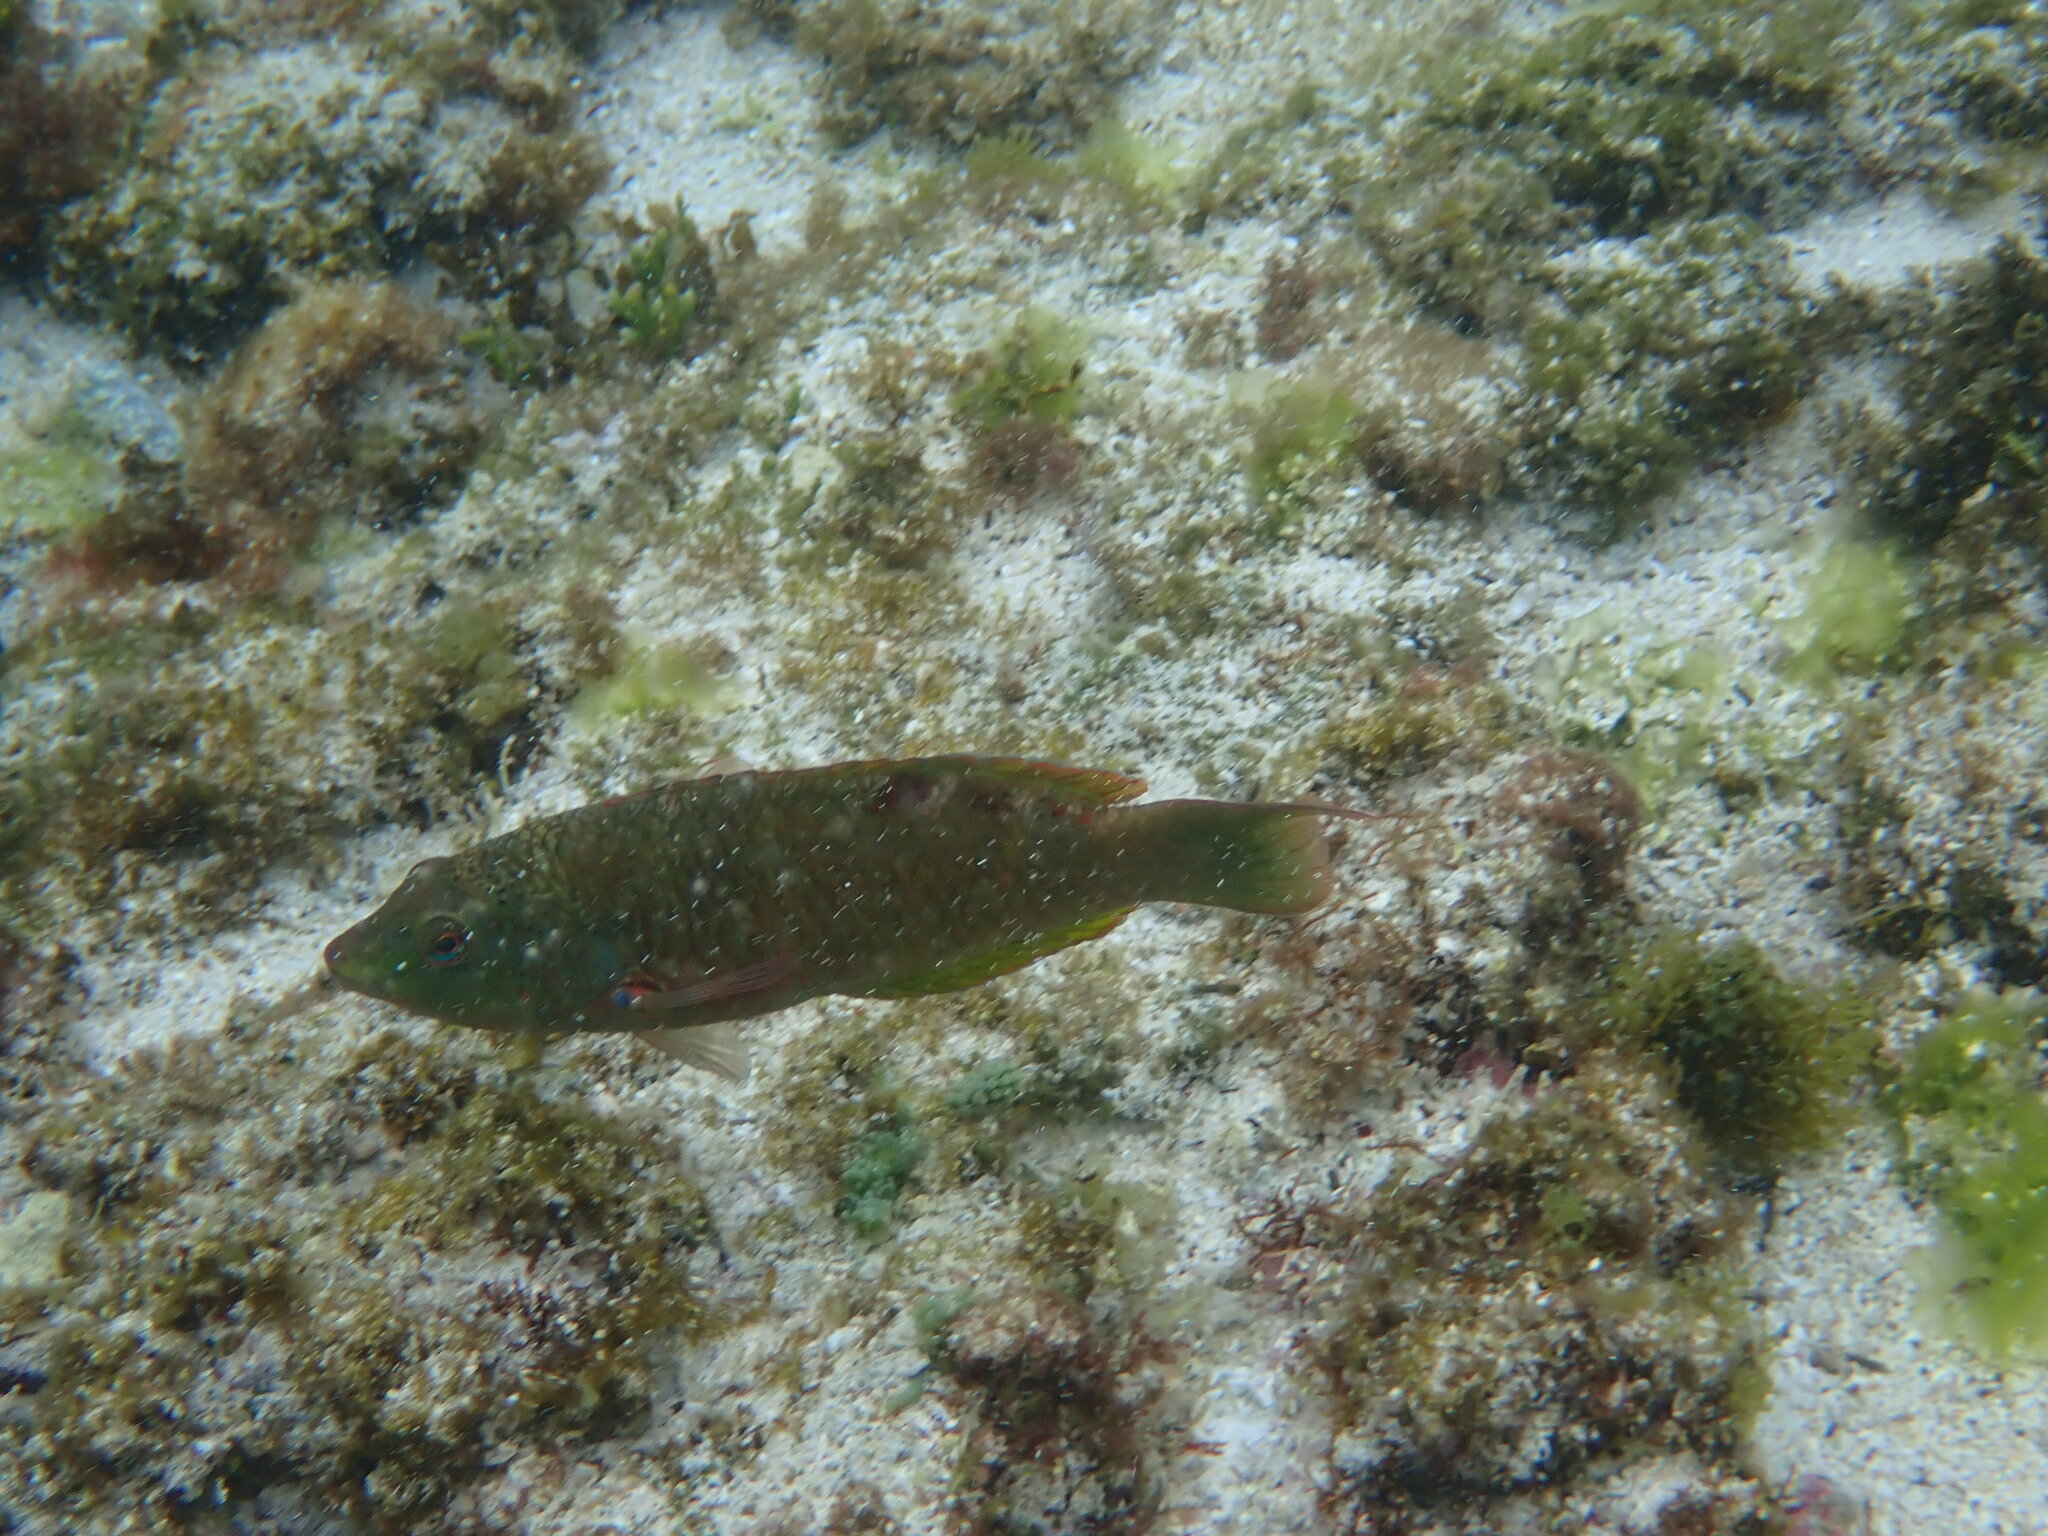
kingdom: Animalia
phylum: Chordata
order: Perciformes
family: Labridae
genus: Pseudolabrus
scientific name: Pseudolabrus luculentus
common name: Luculentus wrasse
